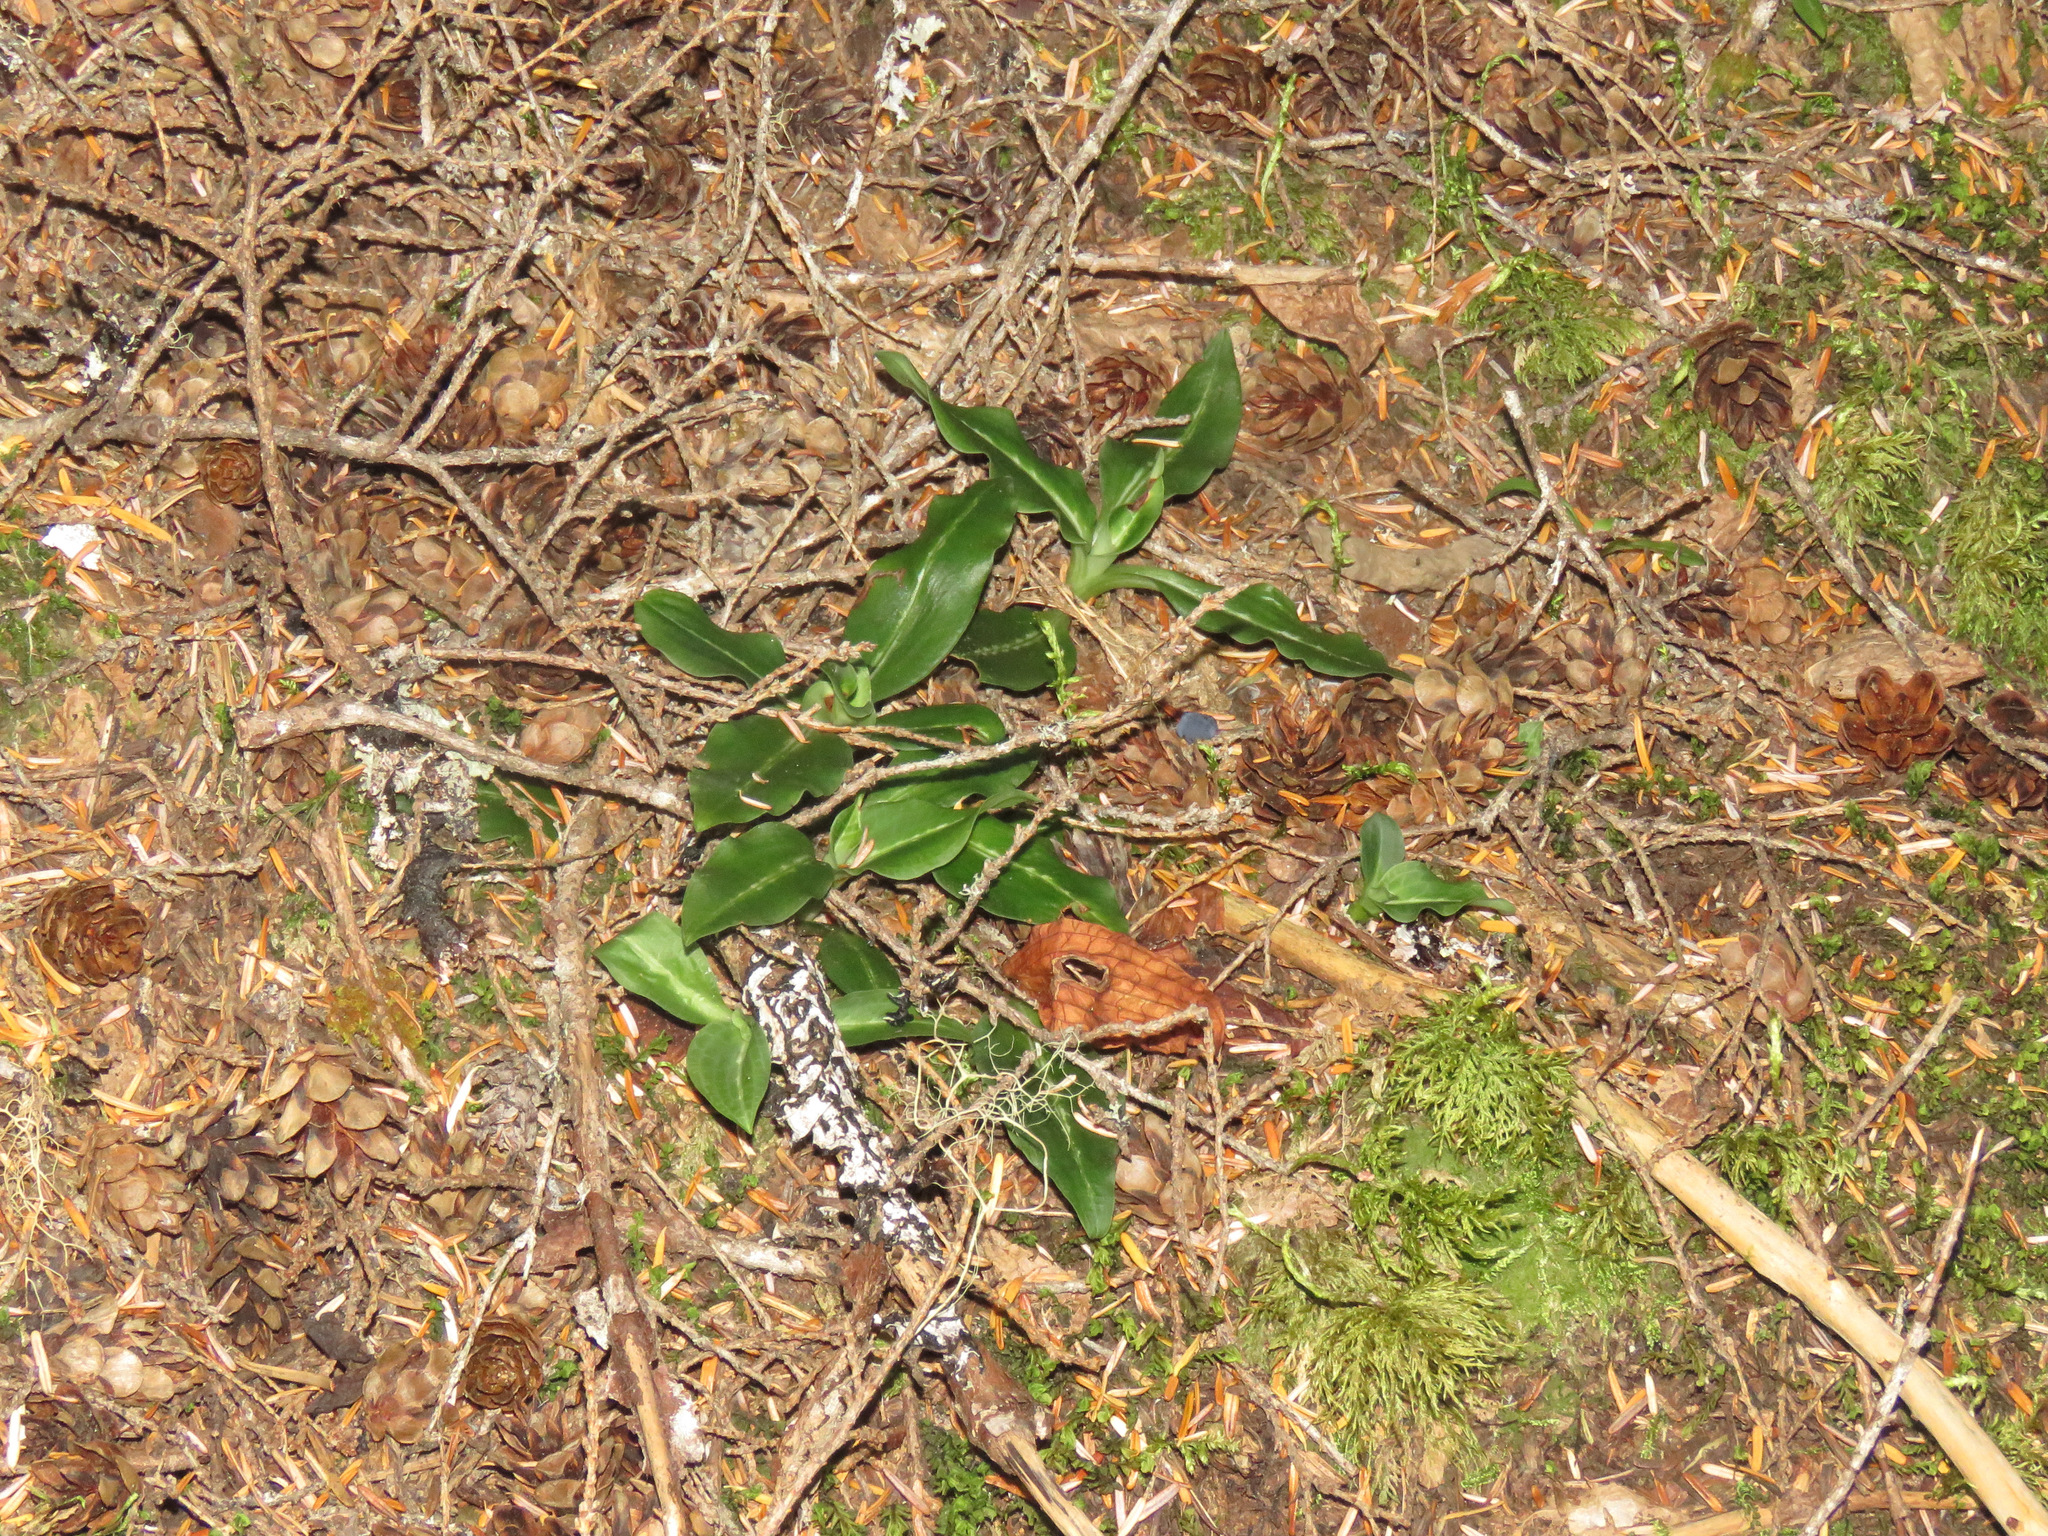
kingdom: Plantae
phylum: Tracheophyta
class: Liliopsida
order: Asparagales
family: Orchidaceae
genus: Goodyera
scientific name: Goodyera oblongifolia
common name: Giant rattlesnake-plantain
